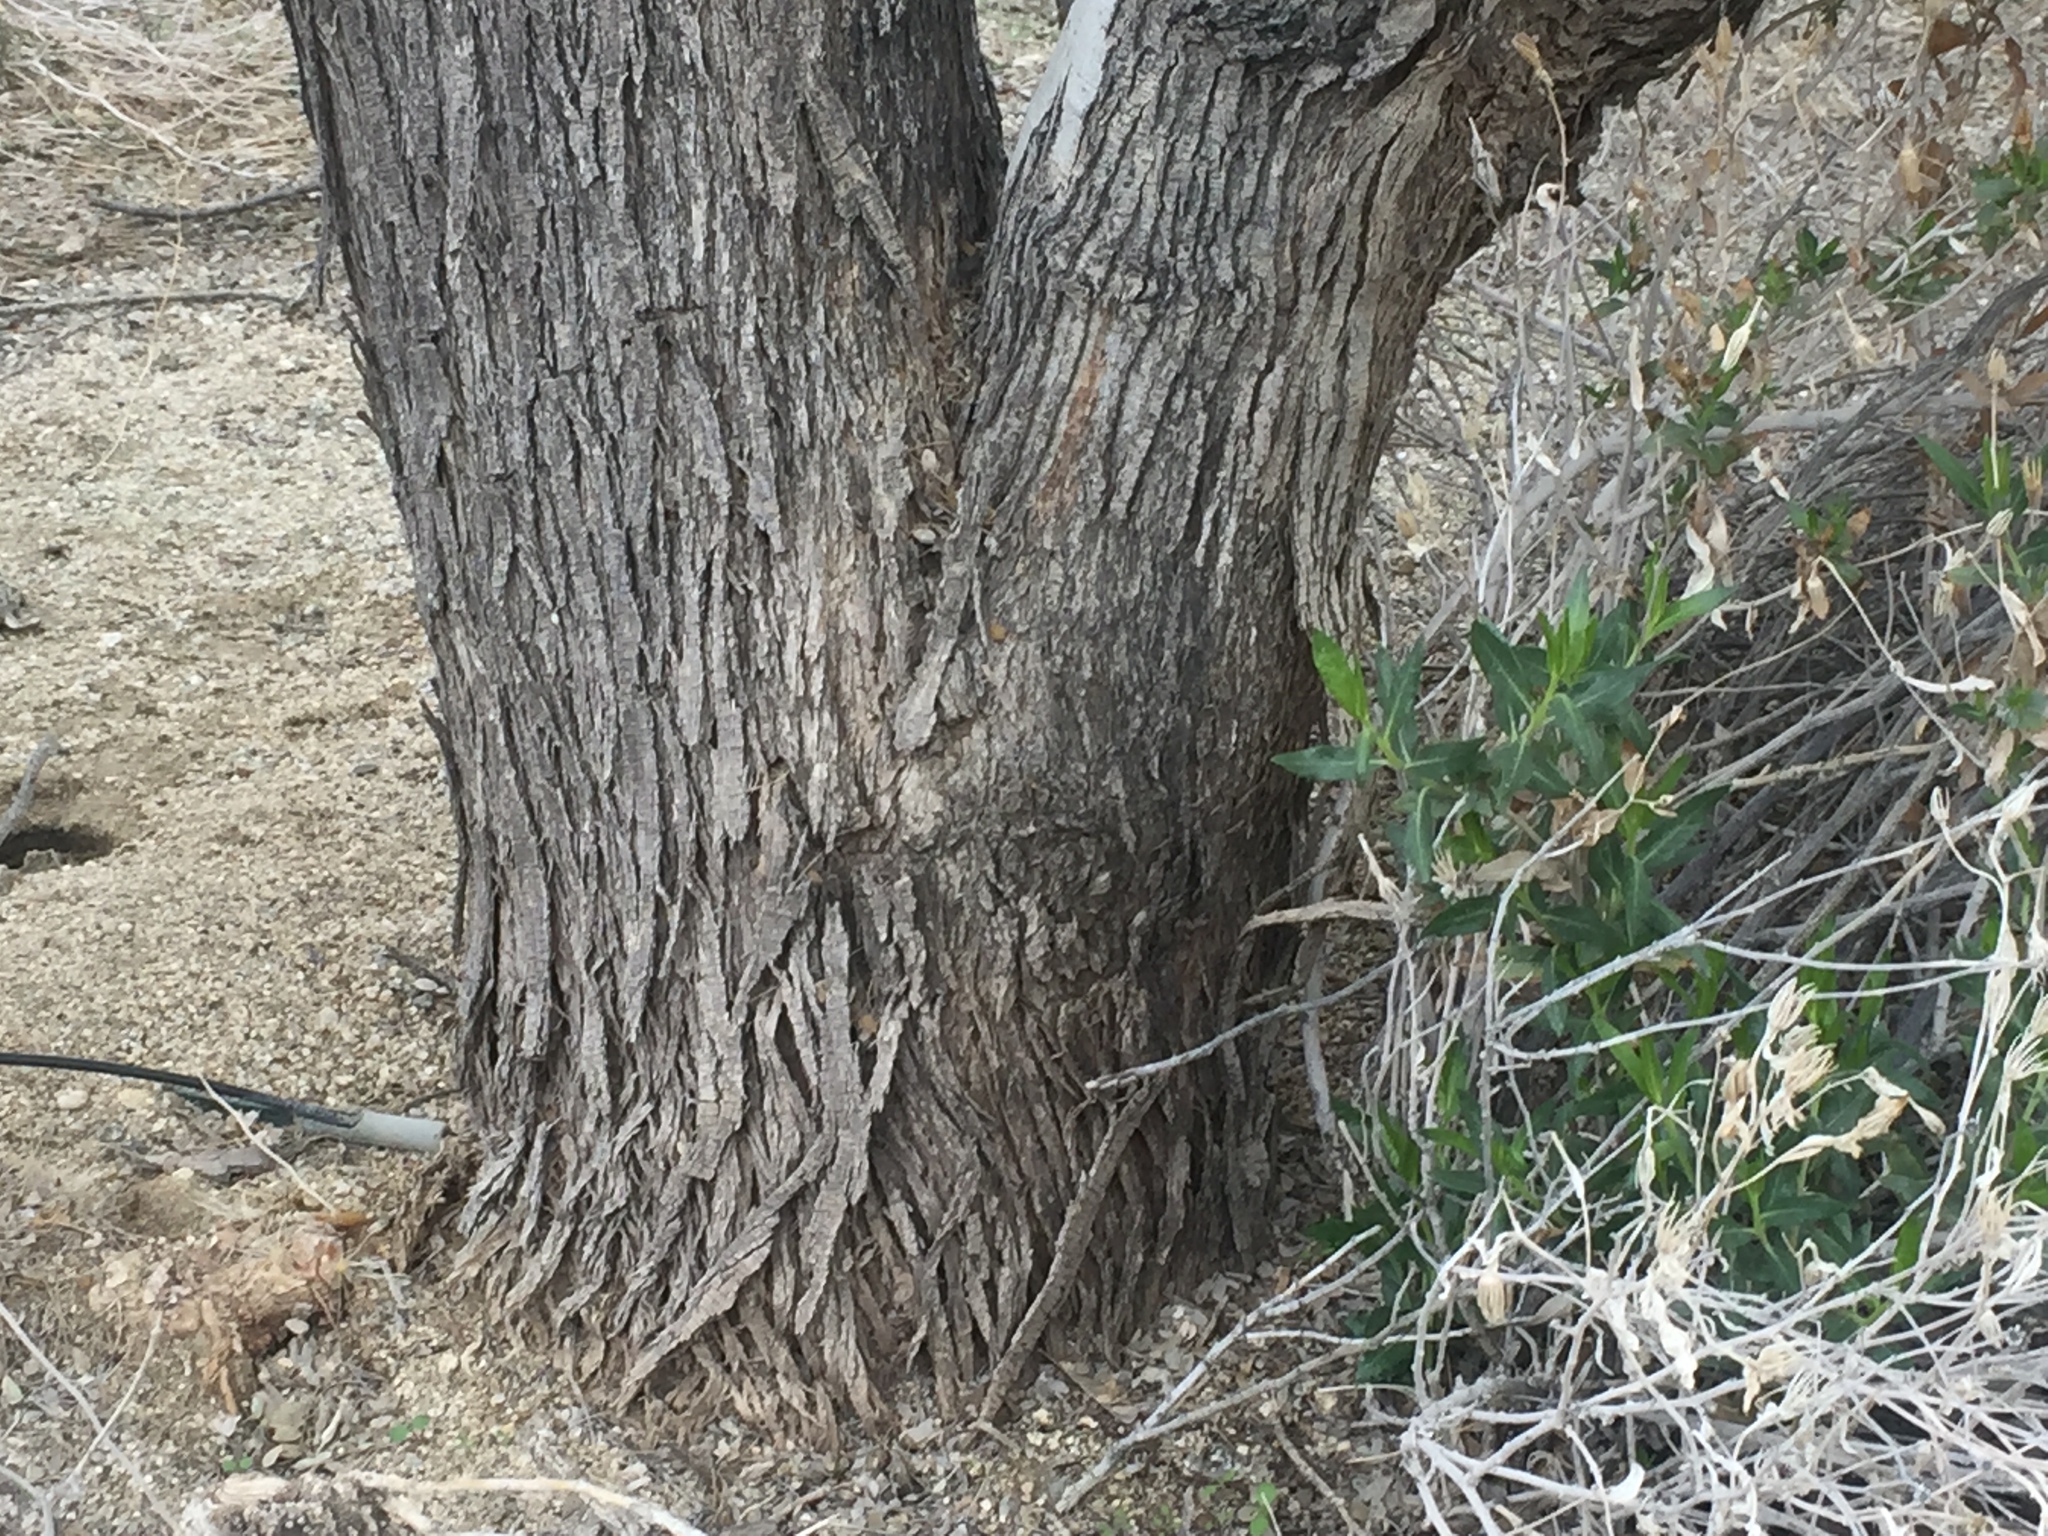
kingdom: Plantae
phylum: Tracheophyta
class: Magnoliopsida
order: Fabales
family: Fabaceae
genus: Olneya
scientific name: Olneya tesota
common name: Desert ironwood
